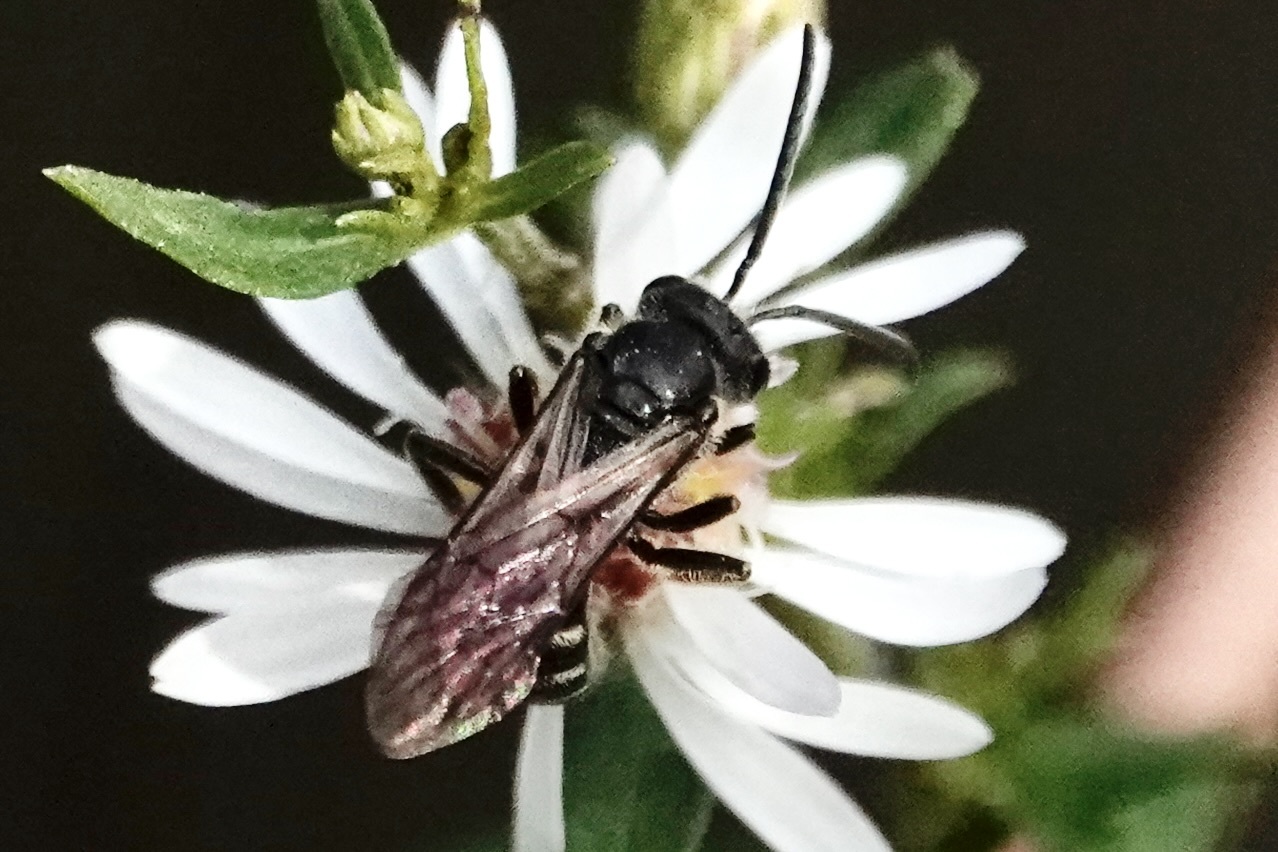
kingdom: Animalia
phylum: Arthropoda
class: Insecta
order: Hymenoptera
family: Halictidae
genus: Lasioglossum
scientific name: Lasioglossum fuscipenne
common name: Brown-winged sweat bee
